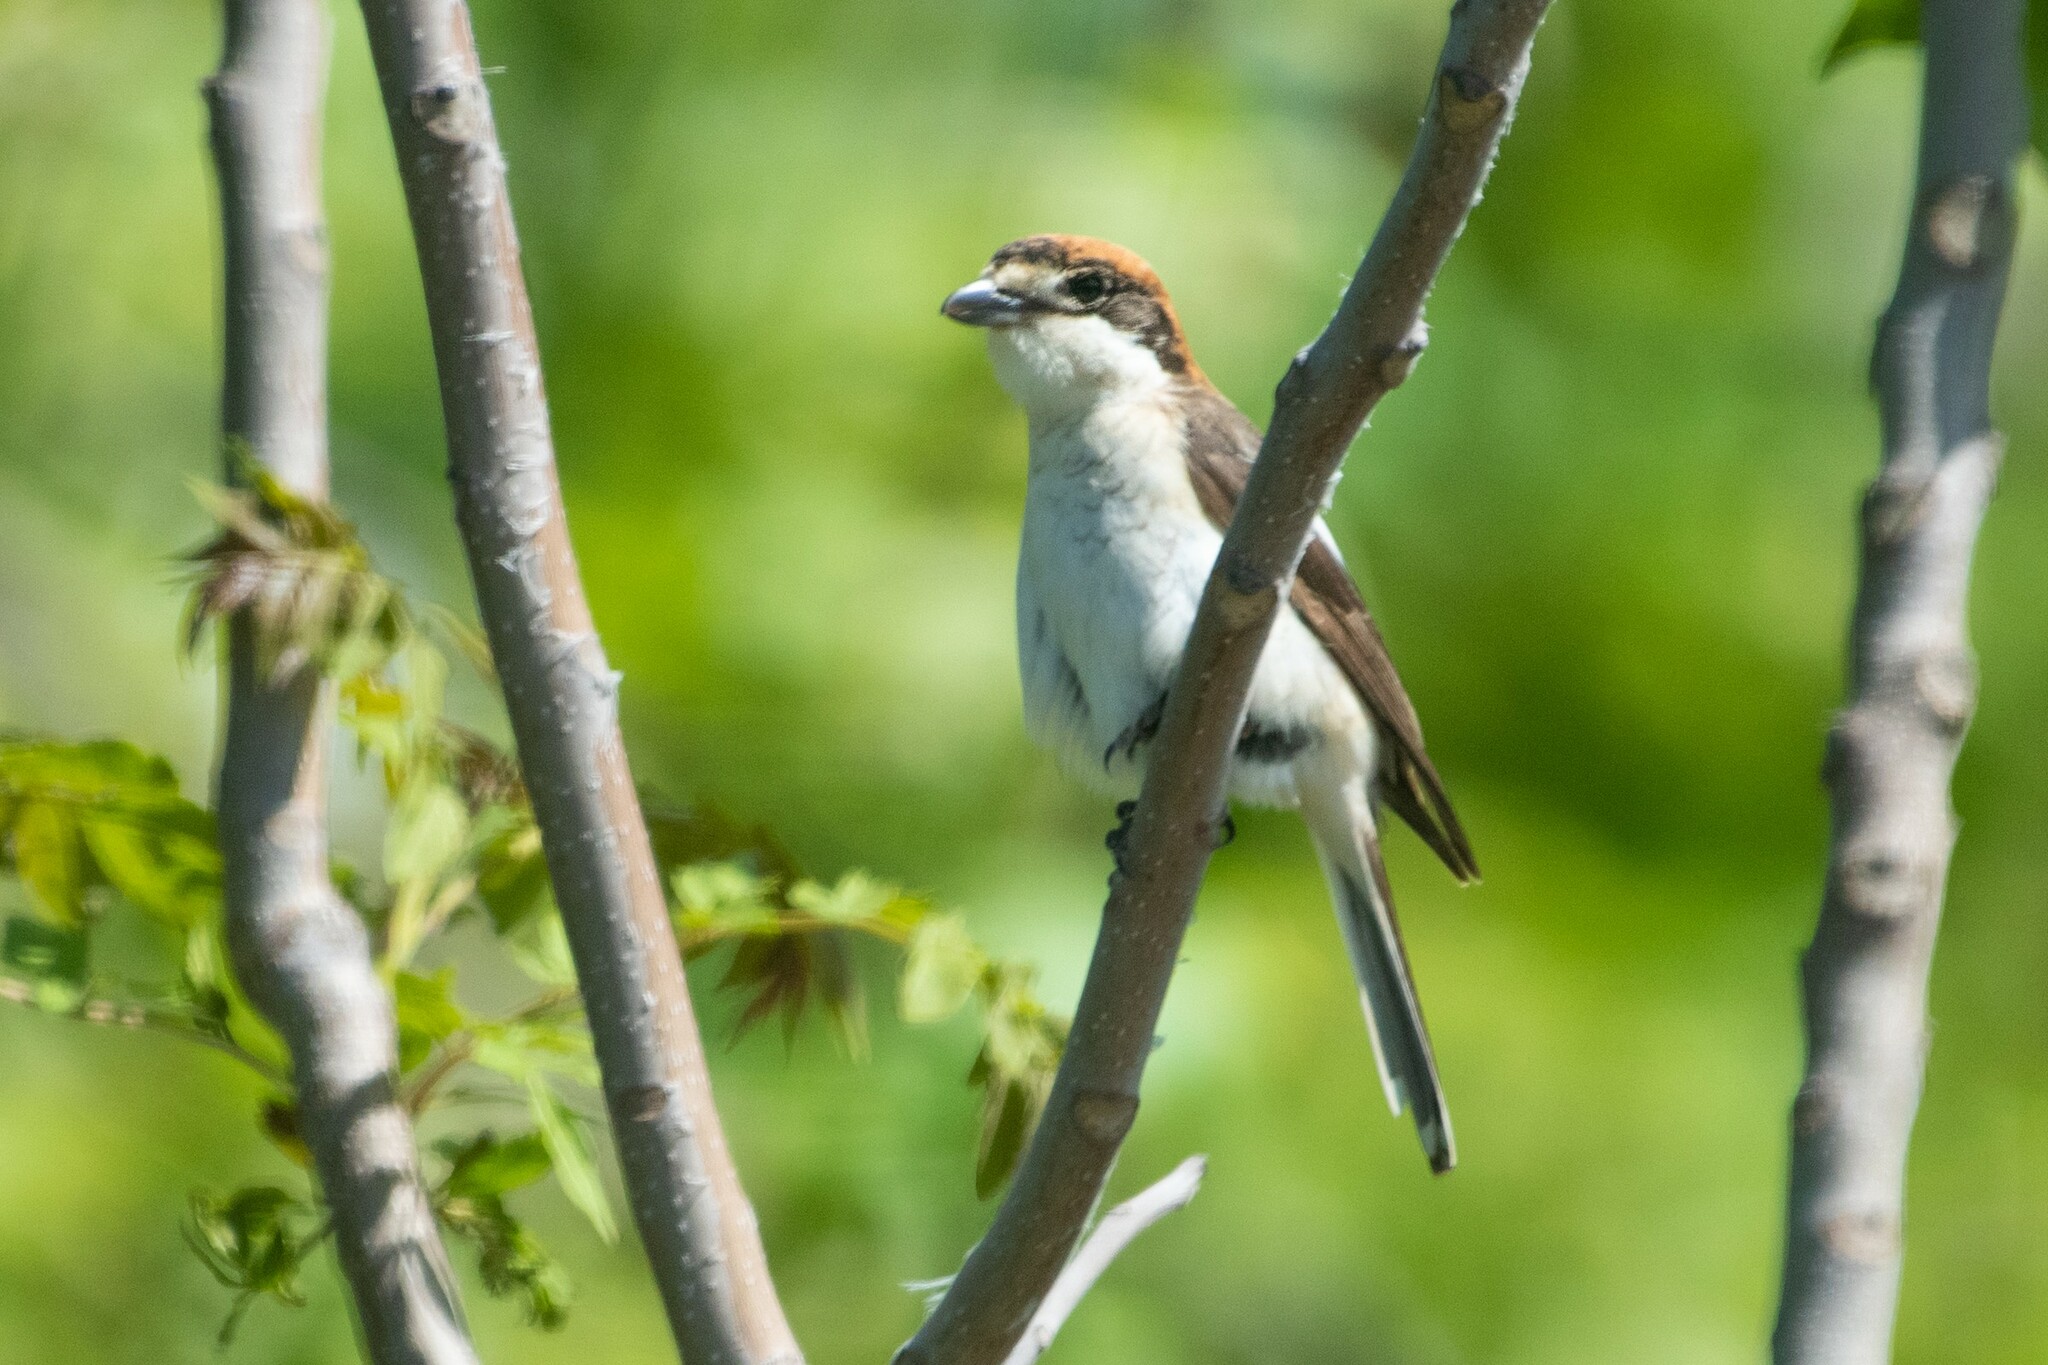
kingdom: Animalia
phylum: Chordata
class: Aves
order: Passeriformes
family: Laniidae
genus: Lanius
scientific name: Lanius senator
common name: Woodchat shrike
